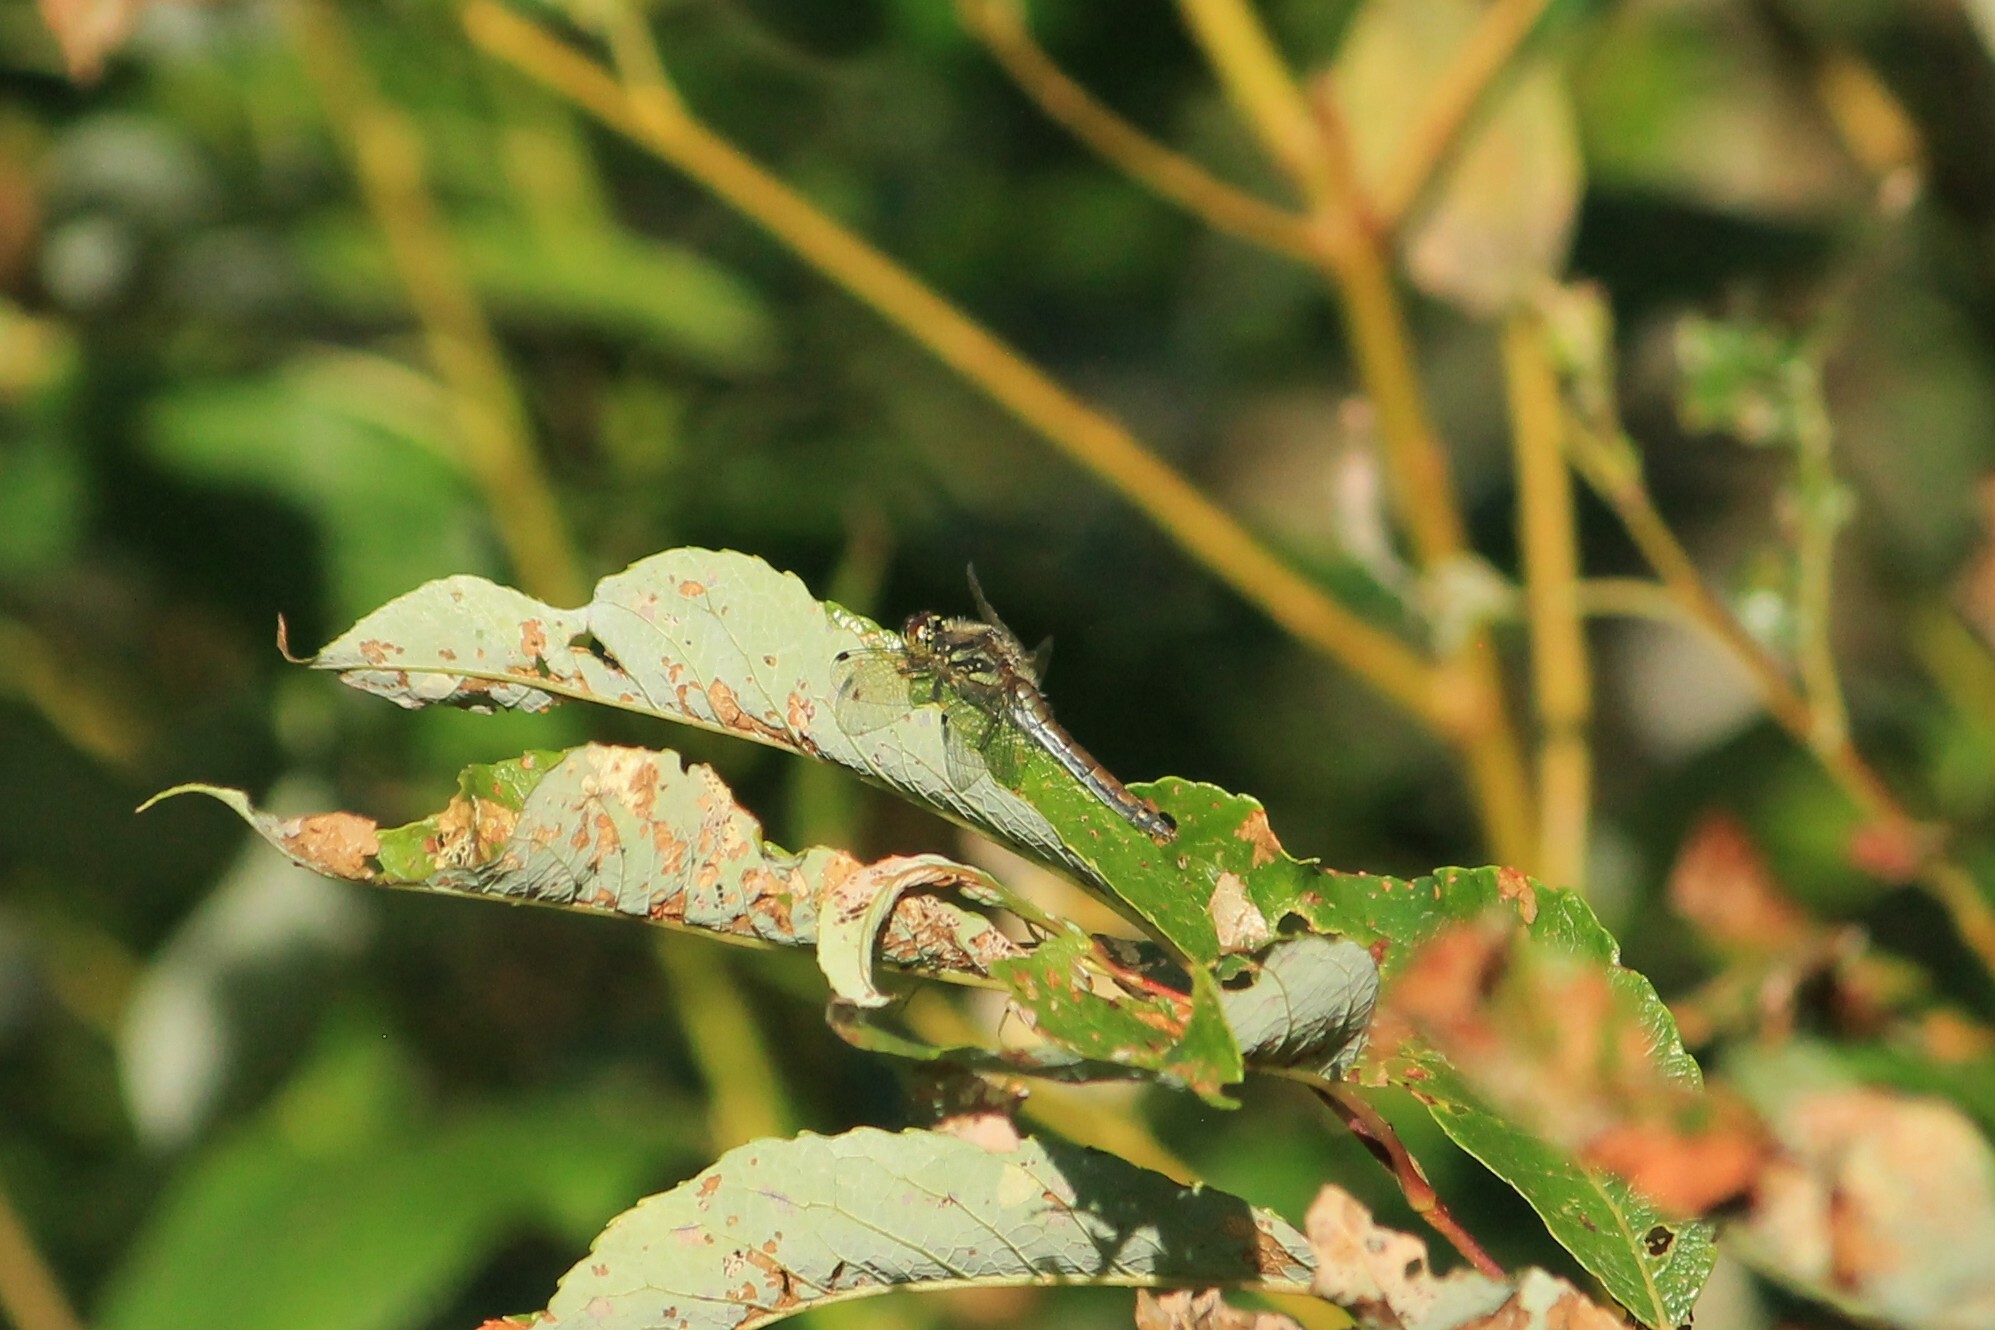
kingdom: Animalia
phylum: Arthropoda
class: Insecta
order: Odonata
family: Libellulidae
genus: Sympetrum
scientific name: Sympetrum danae
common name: Black darter
